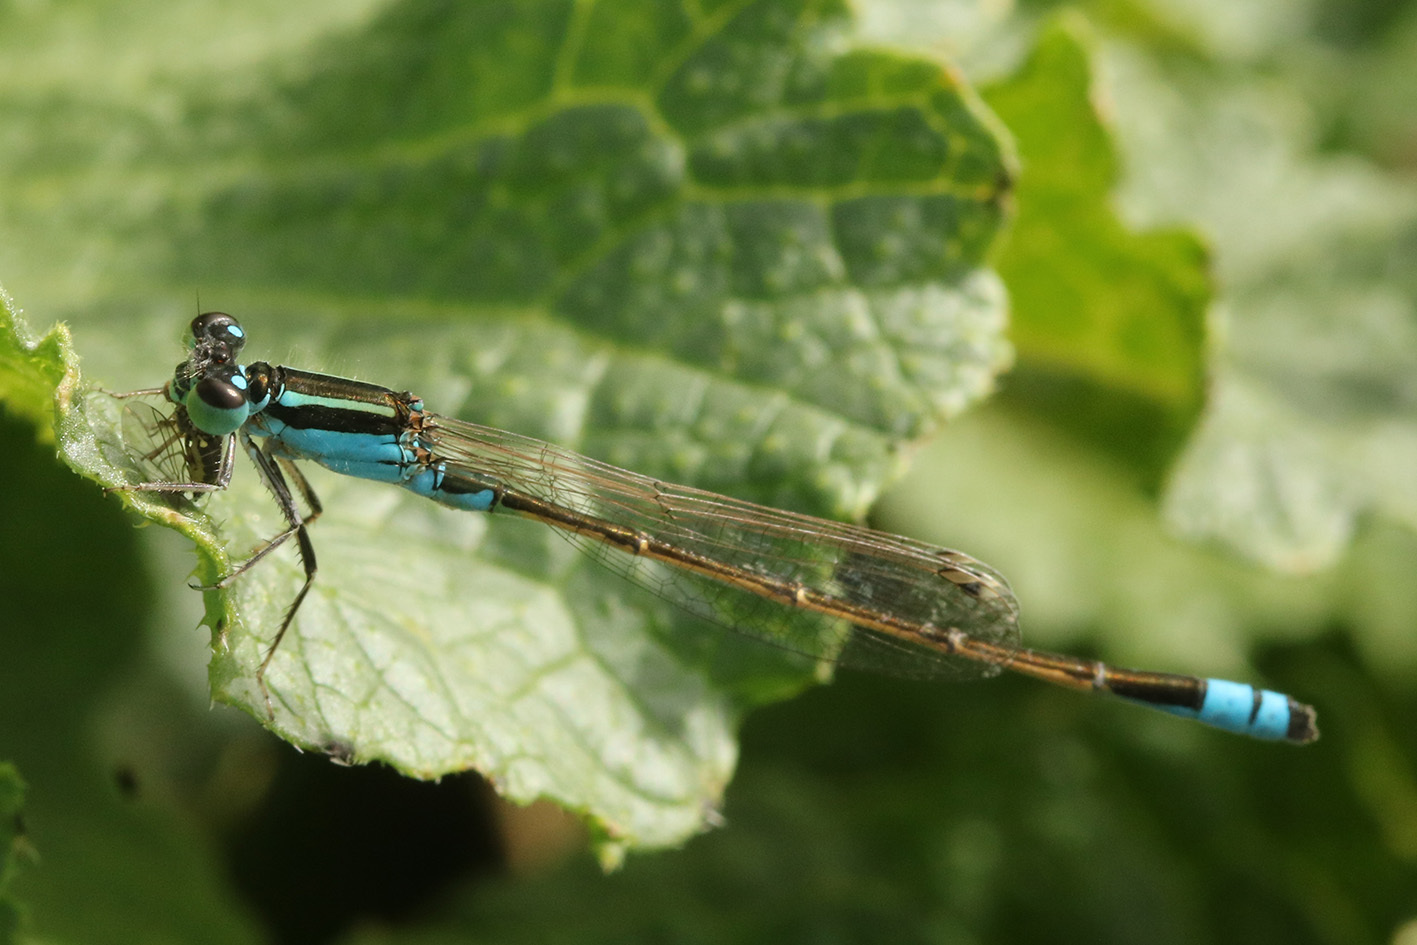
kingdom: Animalia
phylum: Arthropoda
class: Insecta
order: Odonata
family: Coenagrionidae
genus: Ischnura
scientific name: Ischnura fluviatilis
